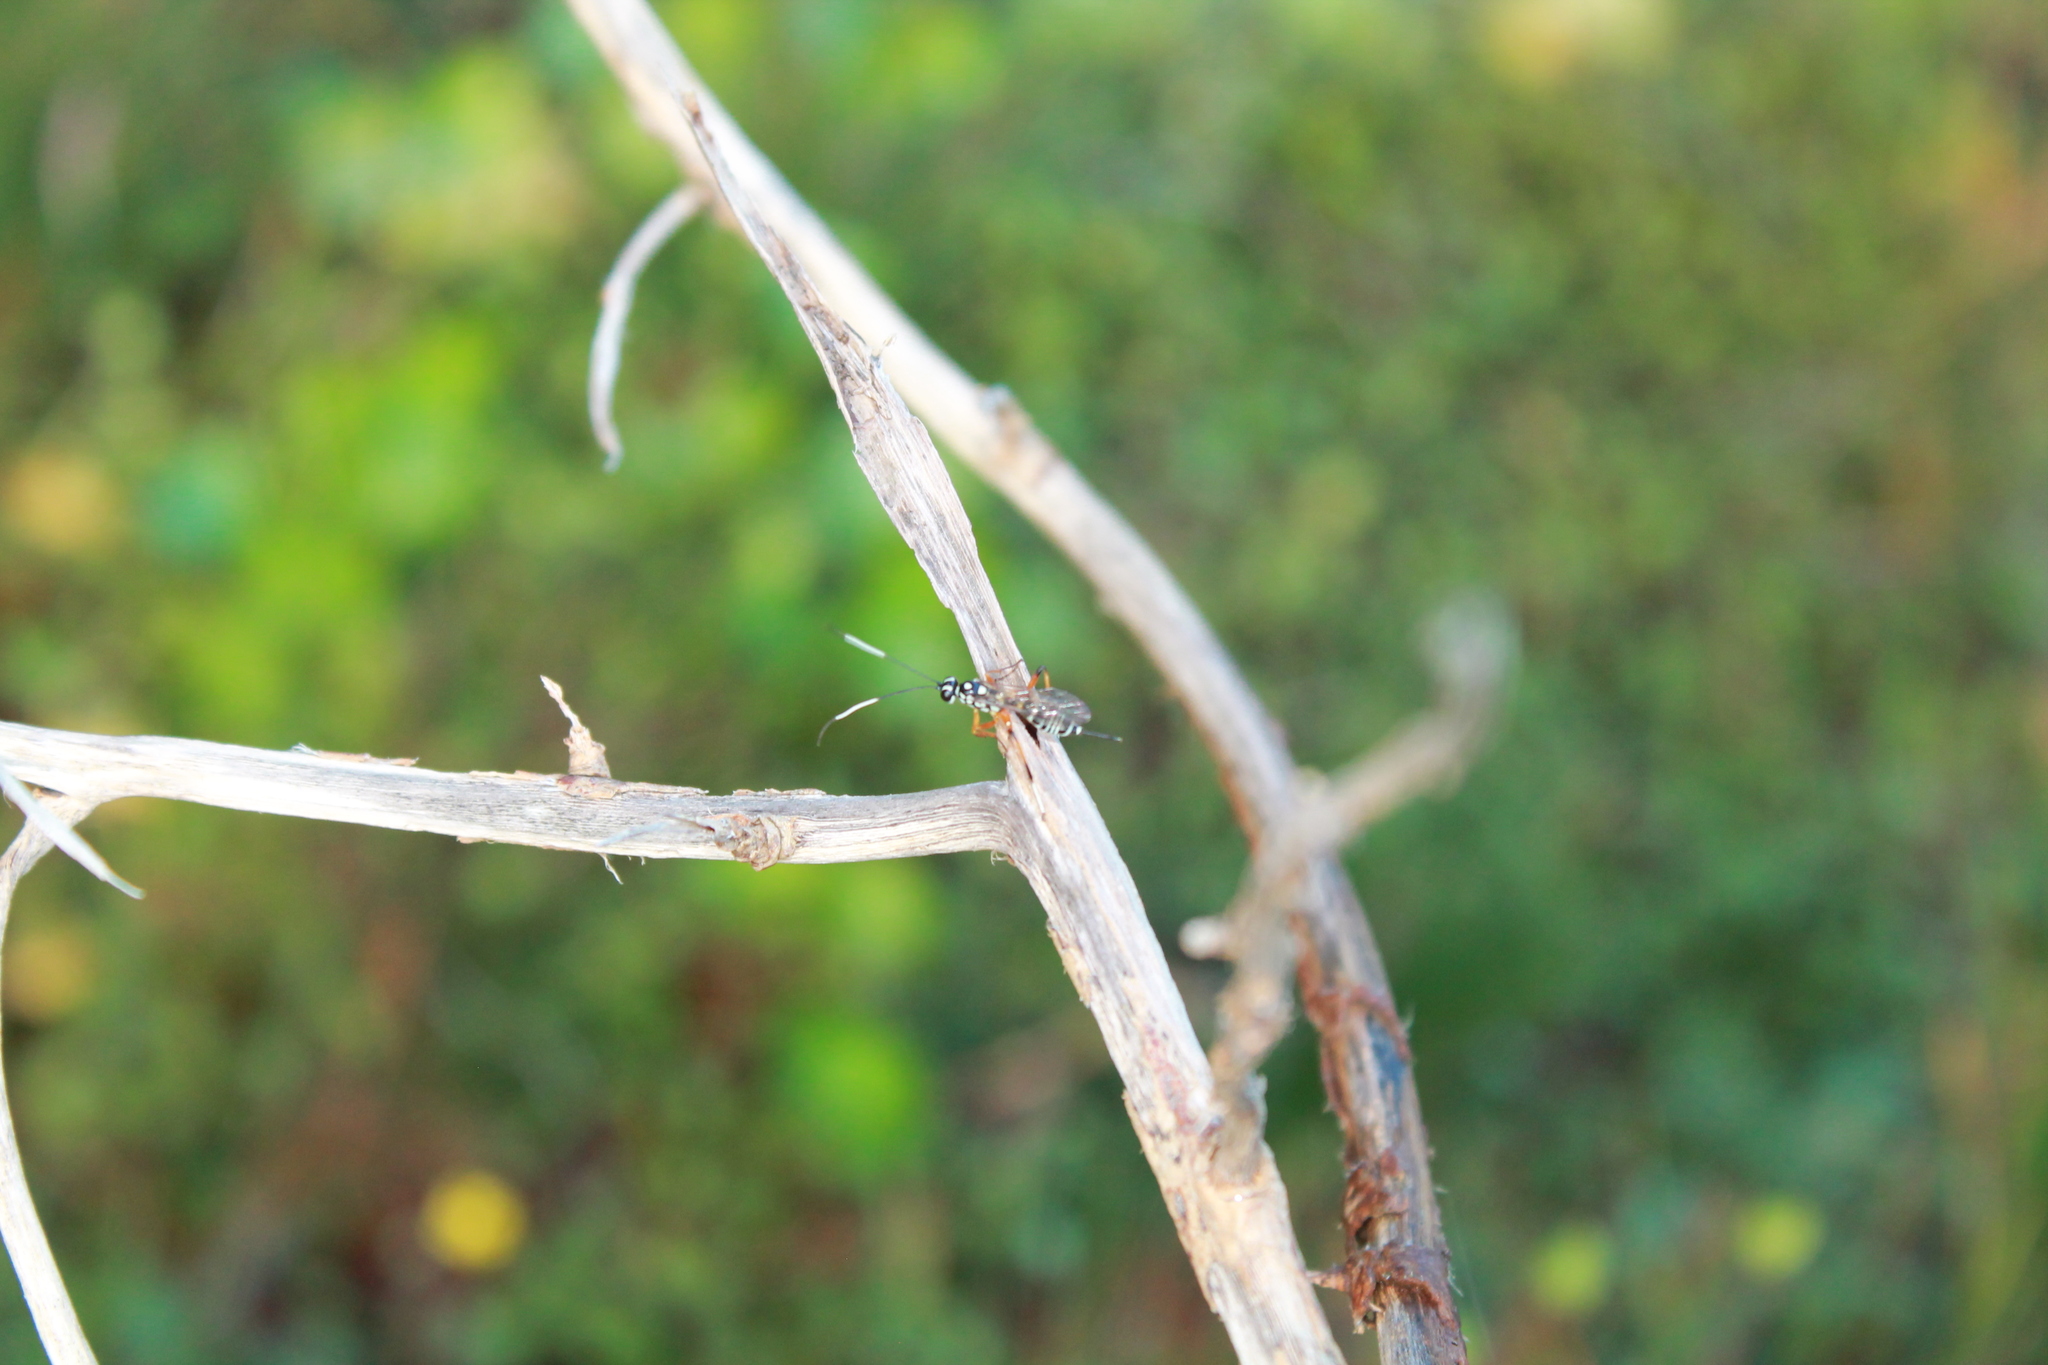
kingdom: Animalia
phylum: Arthropoda
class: Insecta
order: Hymenoptera
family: Ichneumonidae
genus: Xanthocryptus
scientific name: Xanthocryptus novozealandicus
